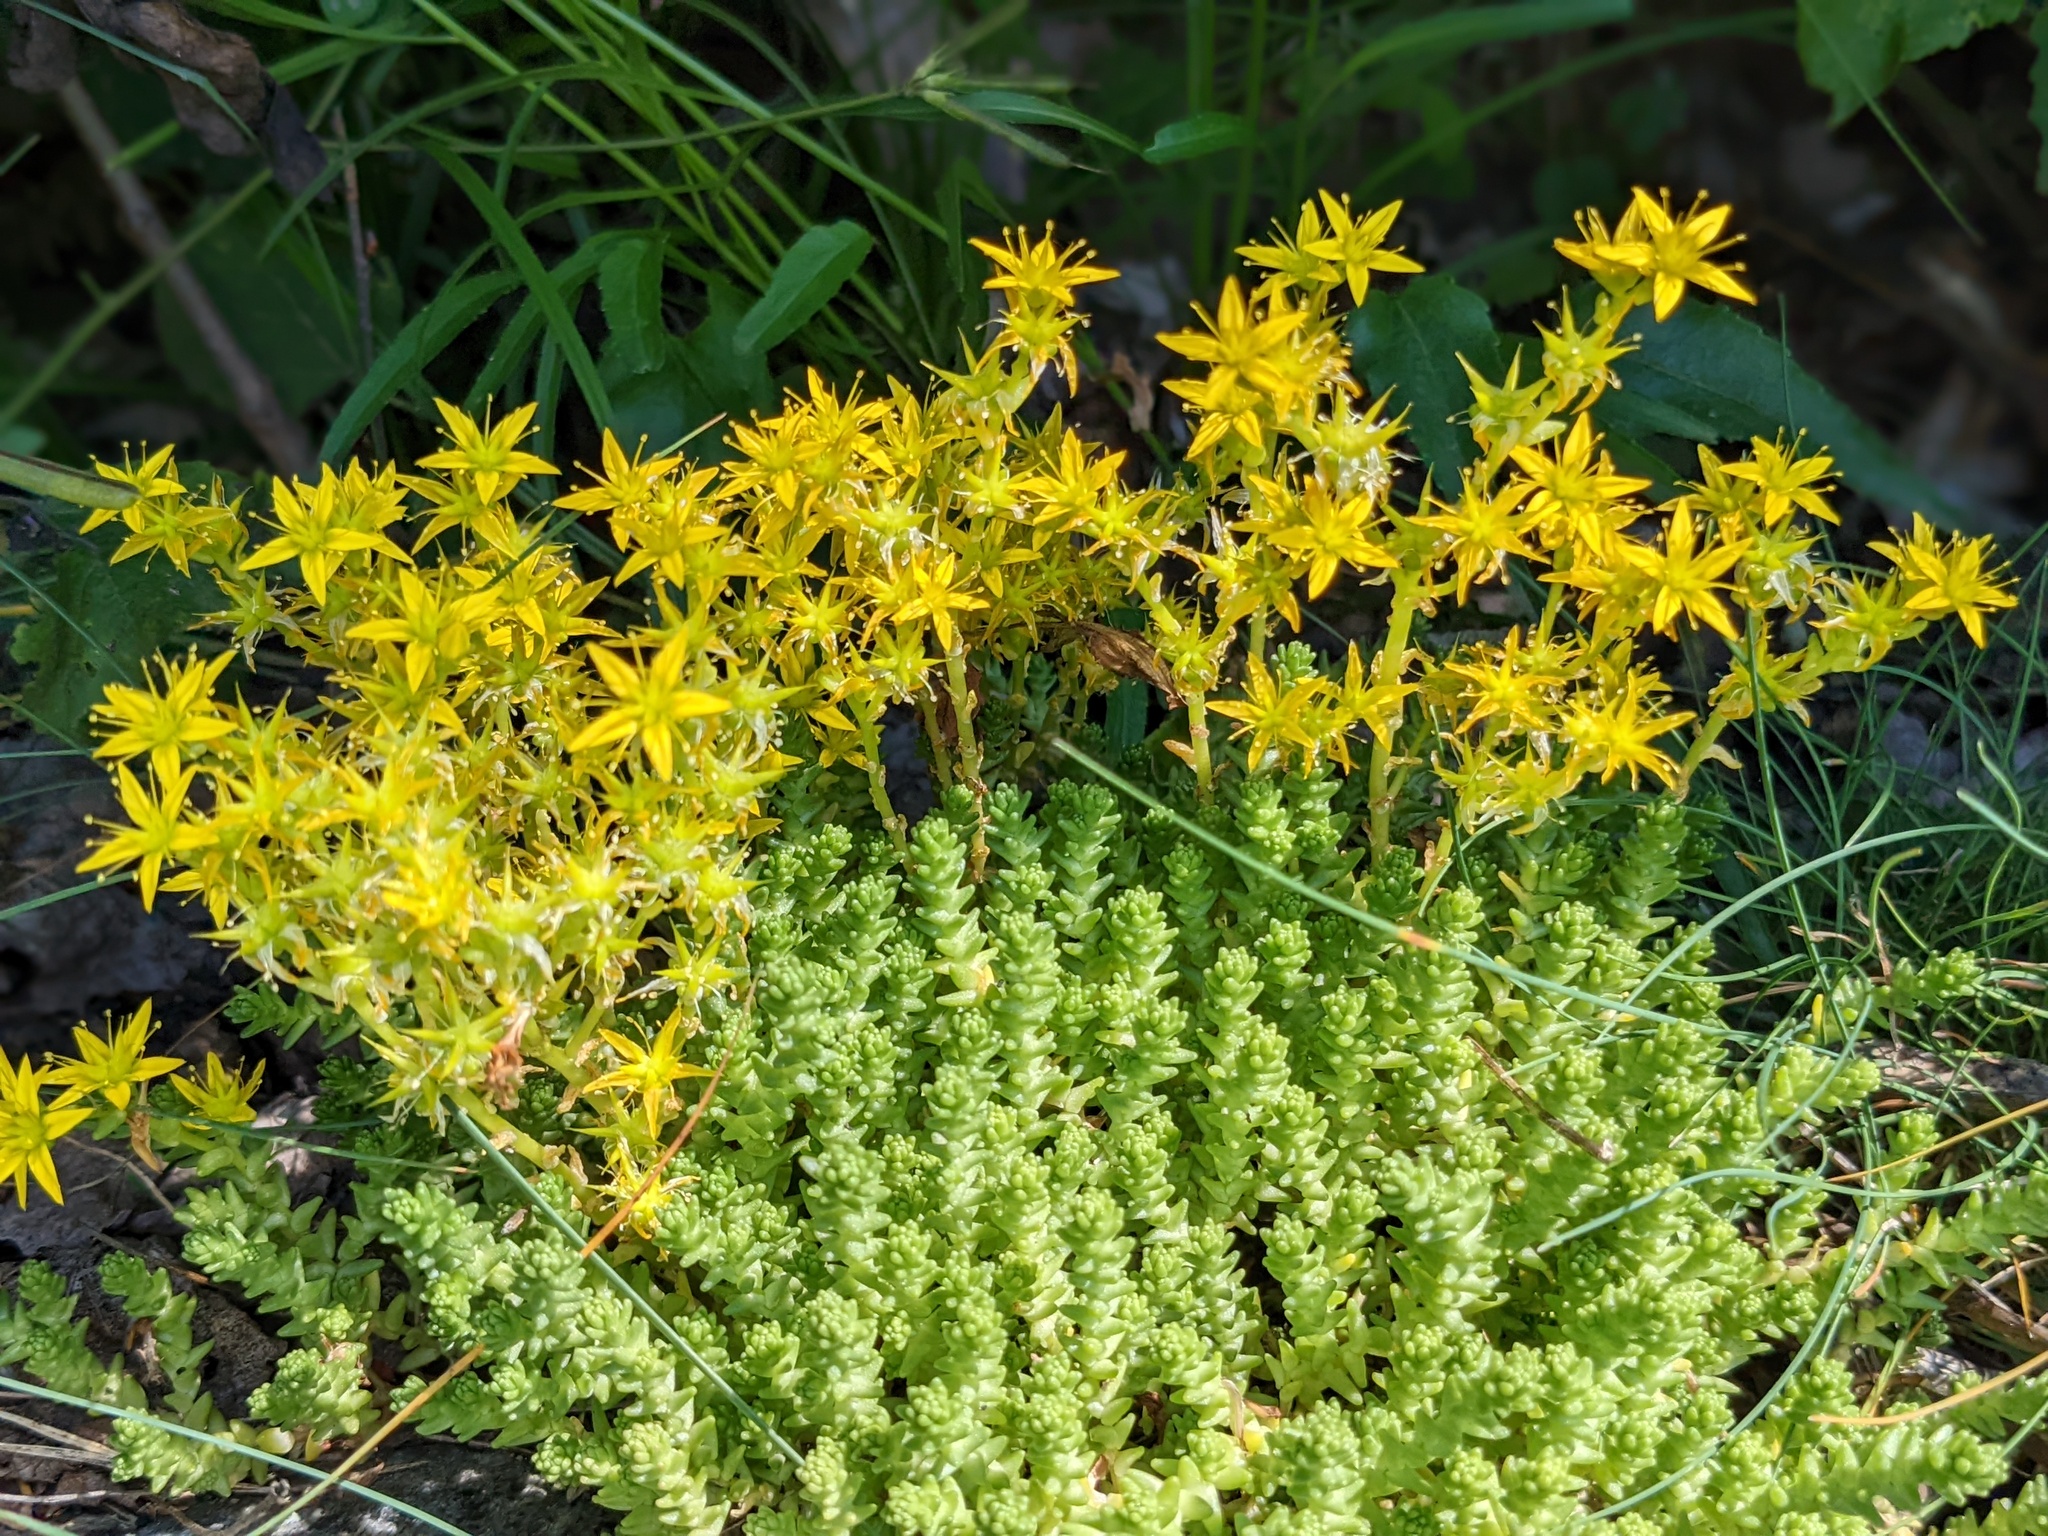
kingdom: Plantae
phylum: Tracheophyta
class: Magnoliopsida
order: Saxifragales
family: Crassulaceae
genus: Sedum
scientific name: Sedum acre
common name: Biting stonecrop
